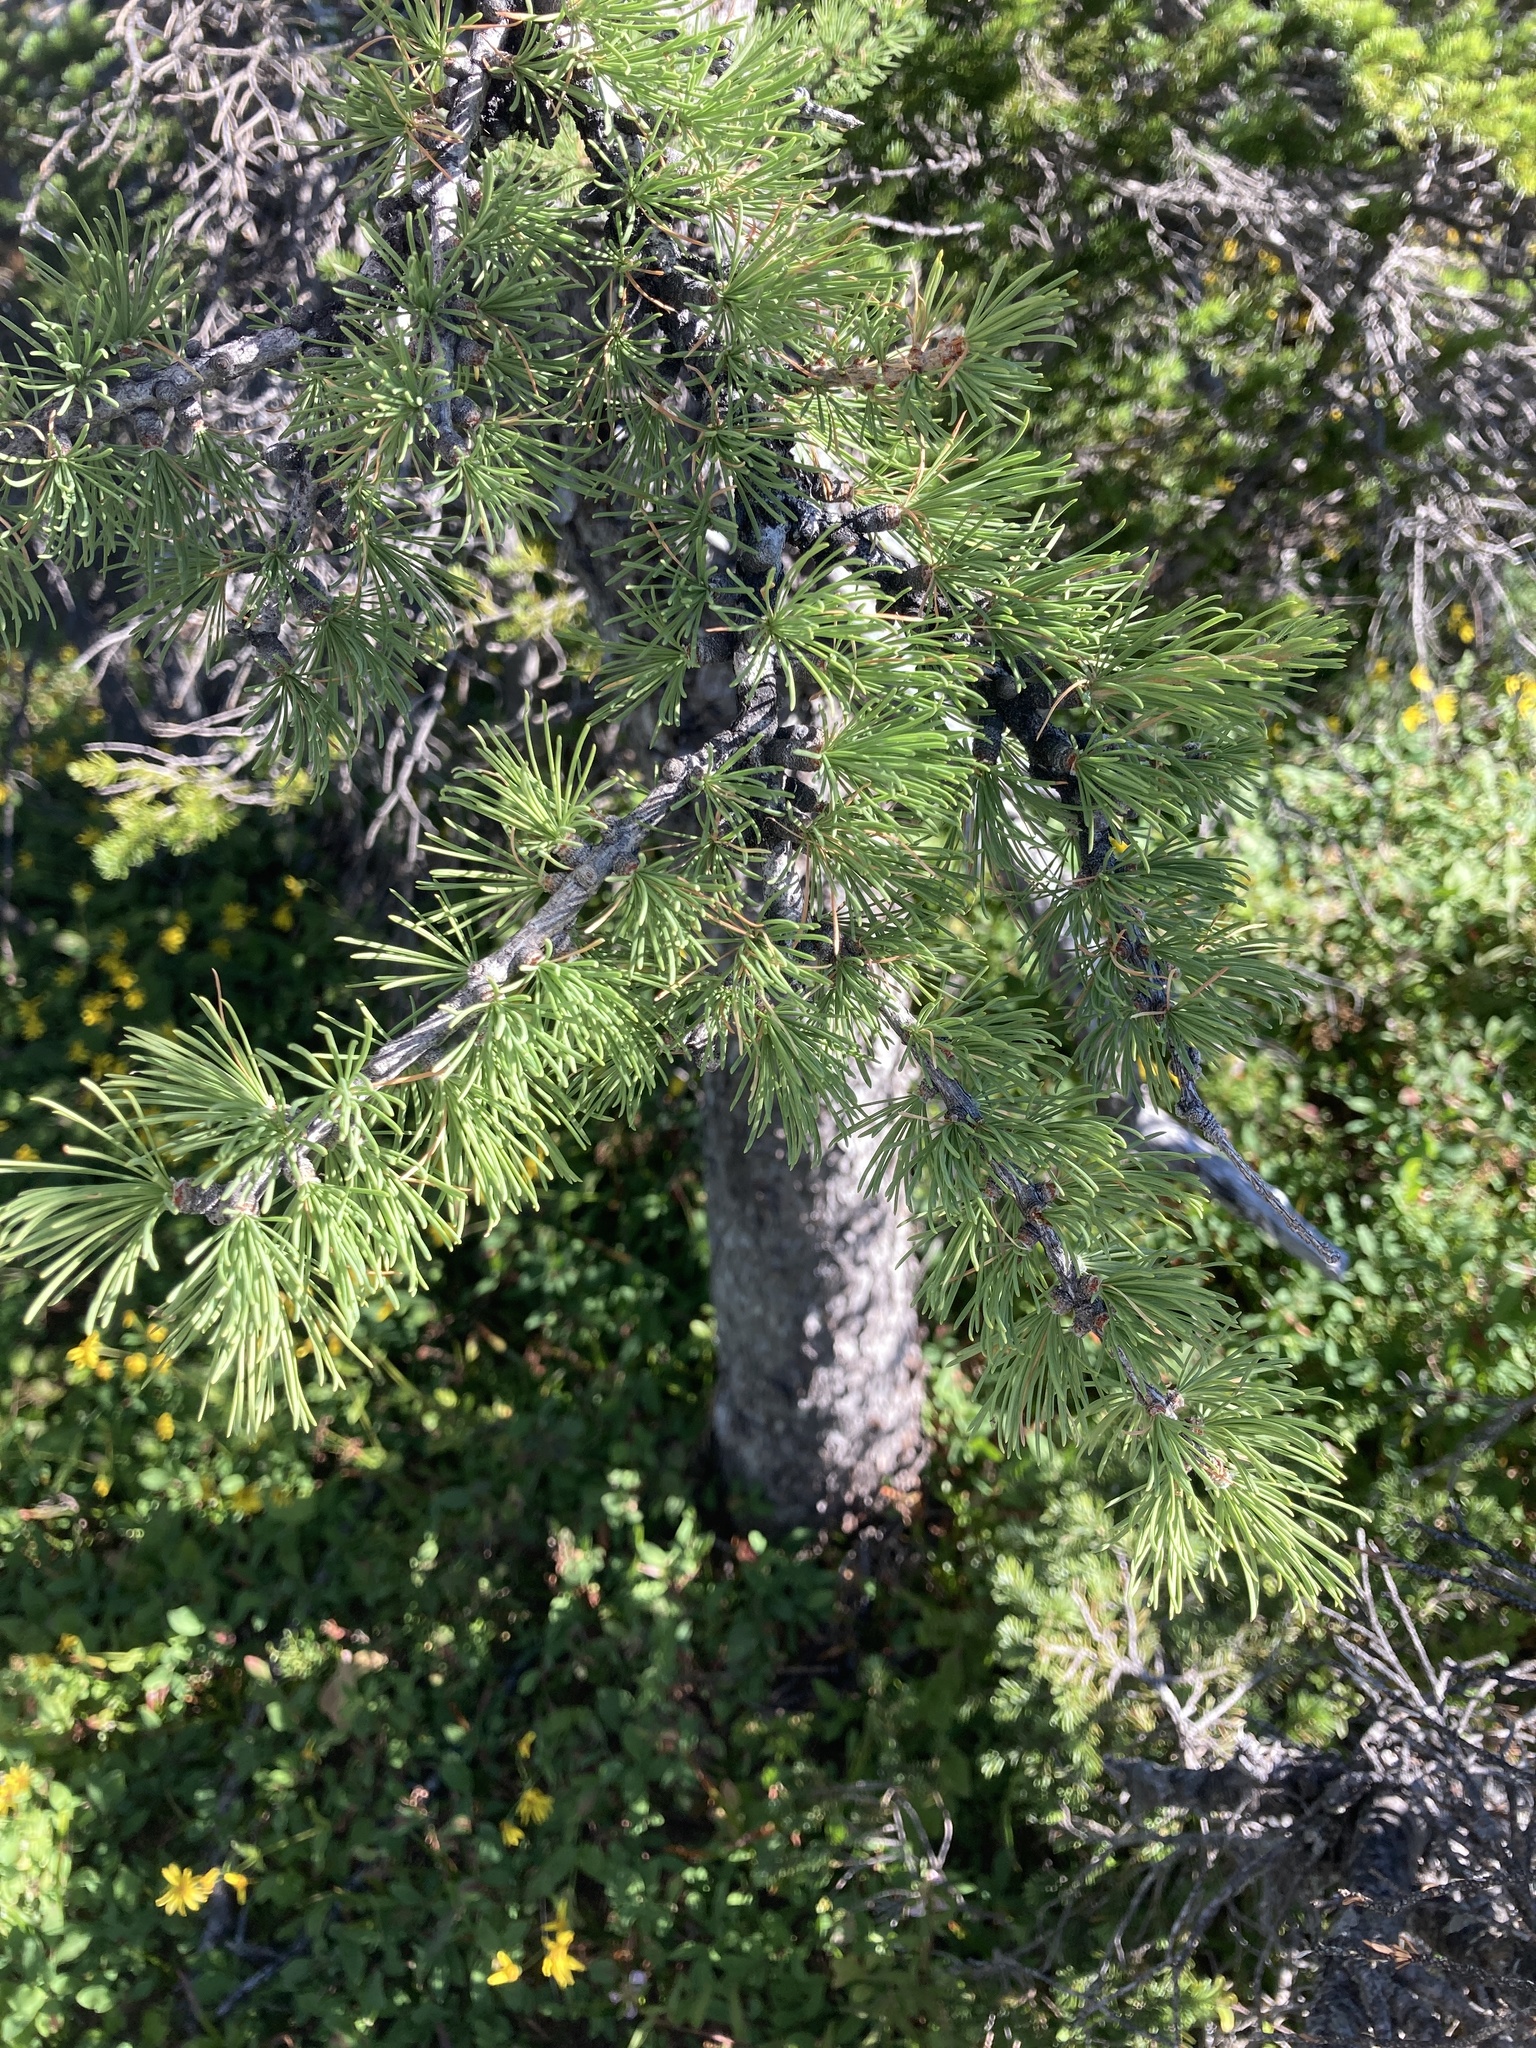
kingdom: Plantae
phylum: Tracheophyta
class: Pinopsida
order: Pinales
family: Pinaceae
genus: Larix
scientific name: Larix lyallii
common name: Alpine larch
